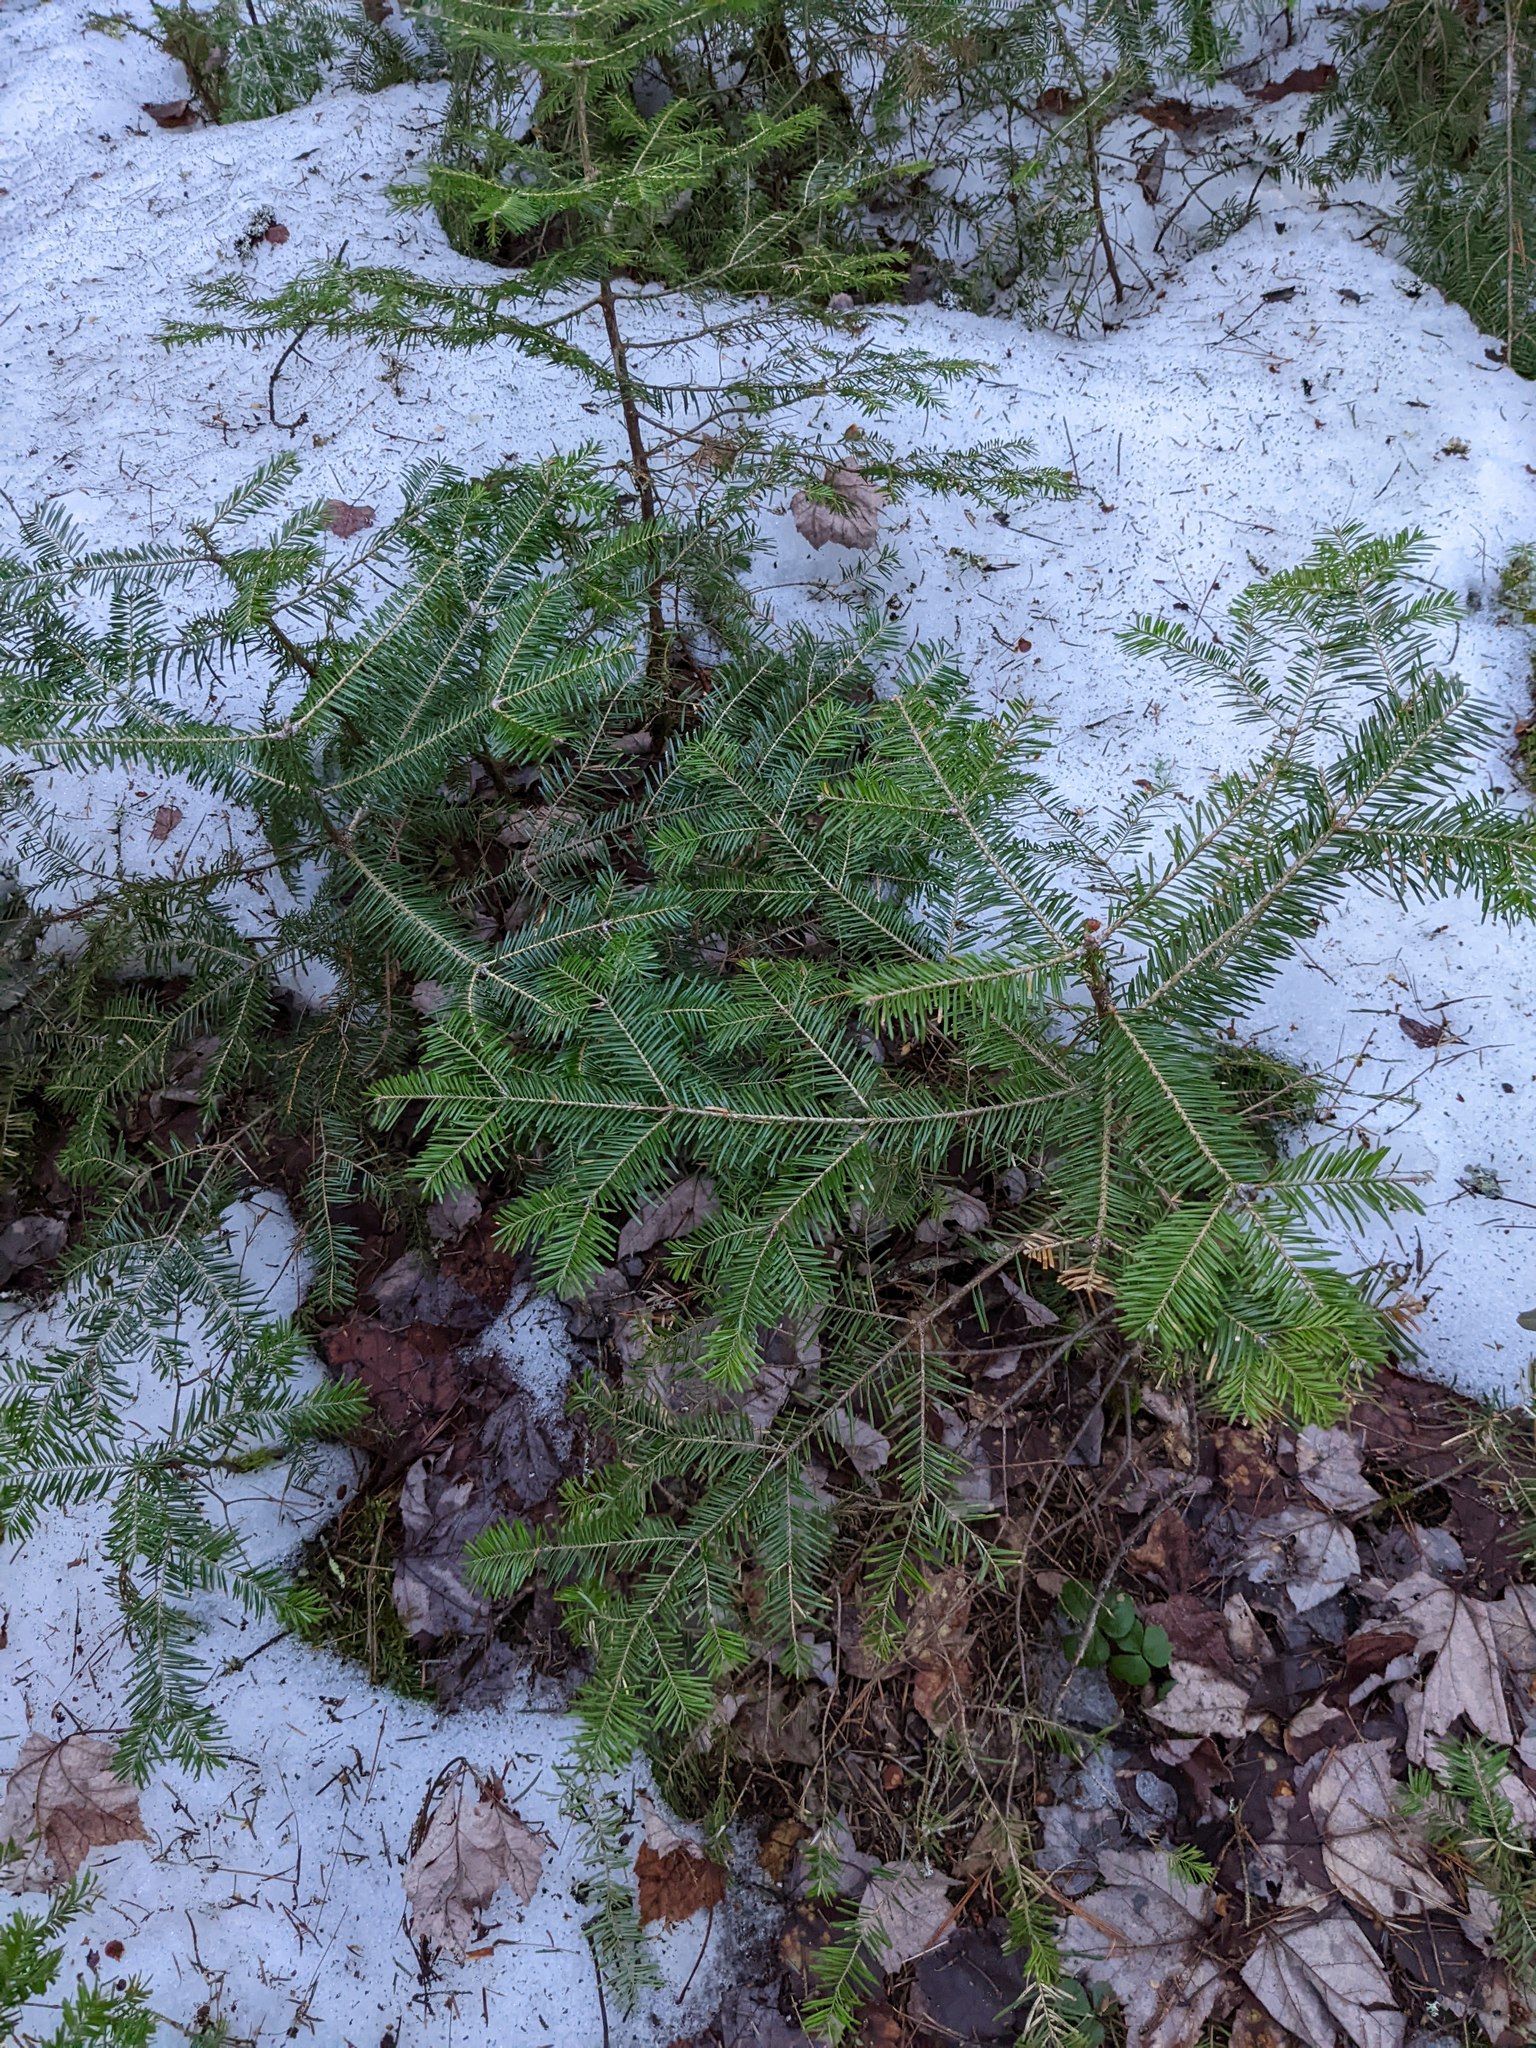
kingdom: Plantae
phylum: Tracheophyta
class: Pinopsida
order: Pinales
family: Pinaceae
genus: Abies
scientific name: Abies balsamea
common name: Balsam fir
